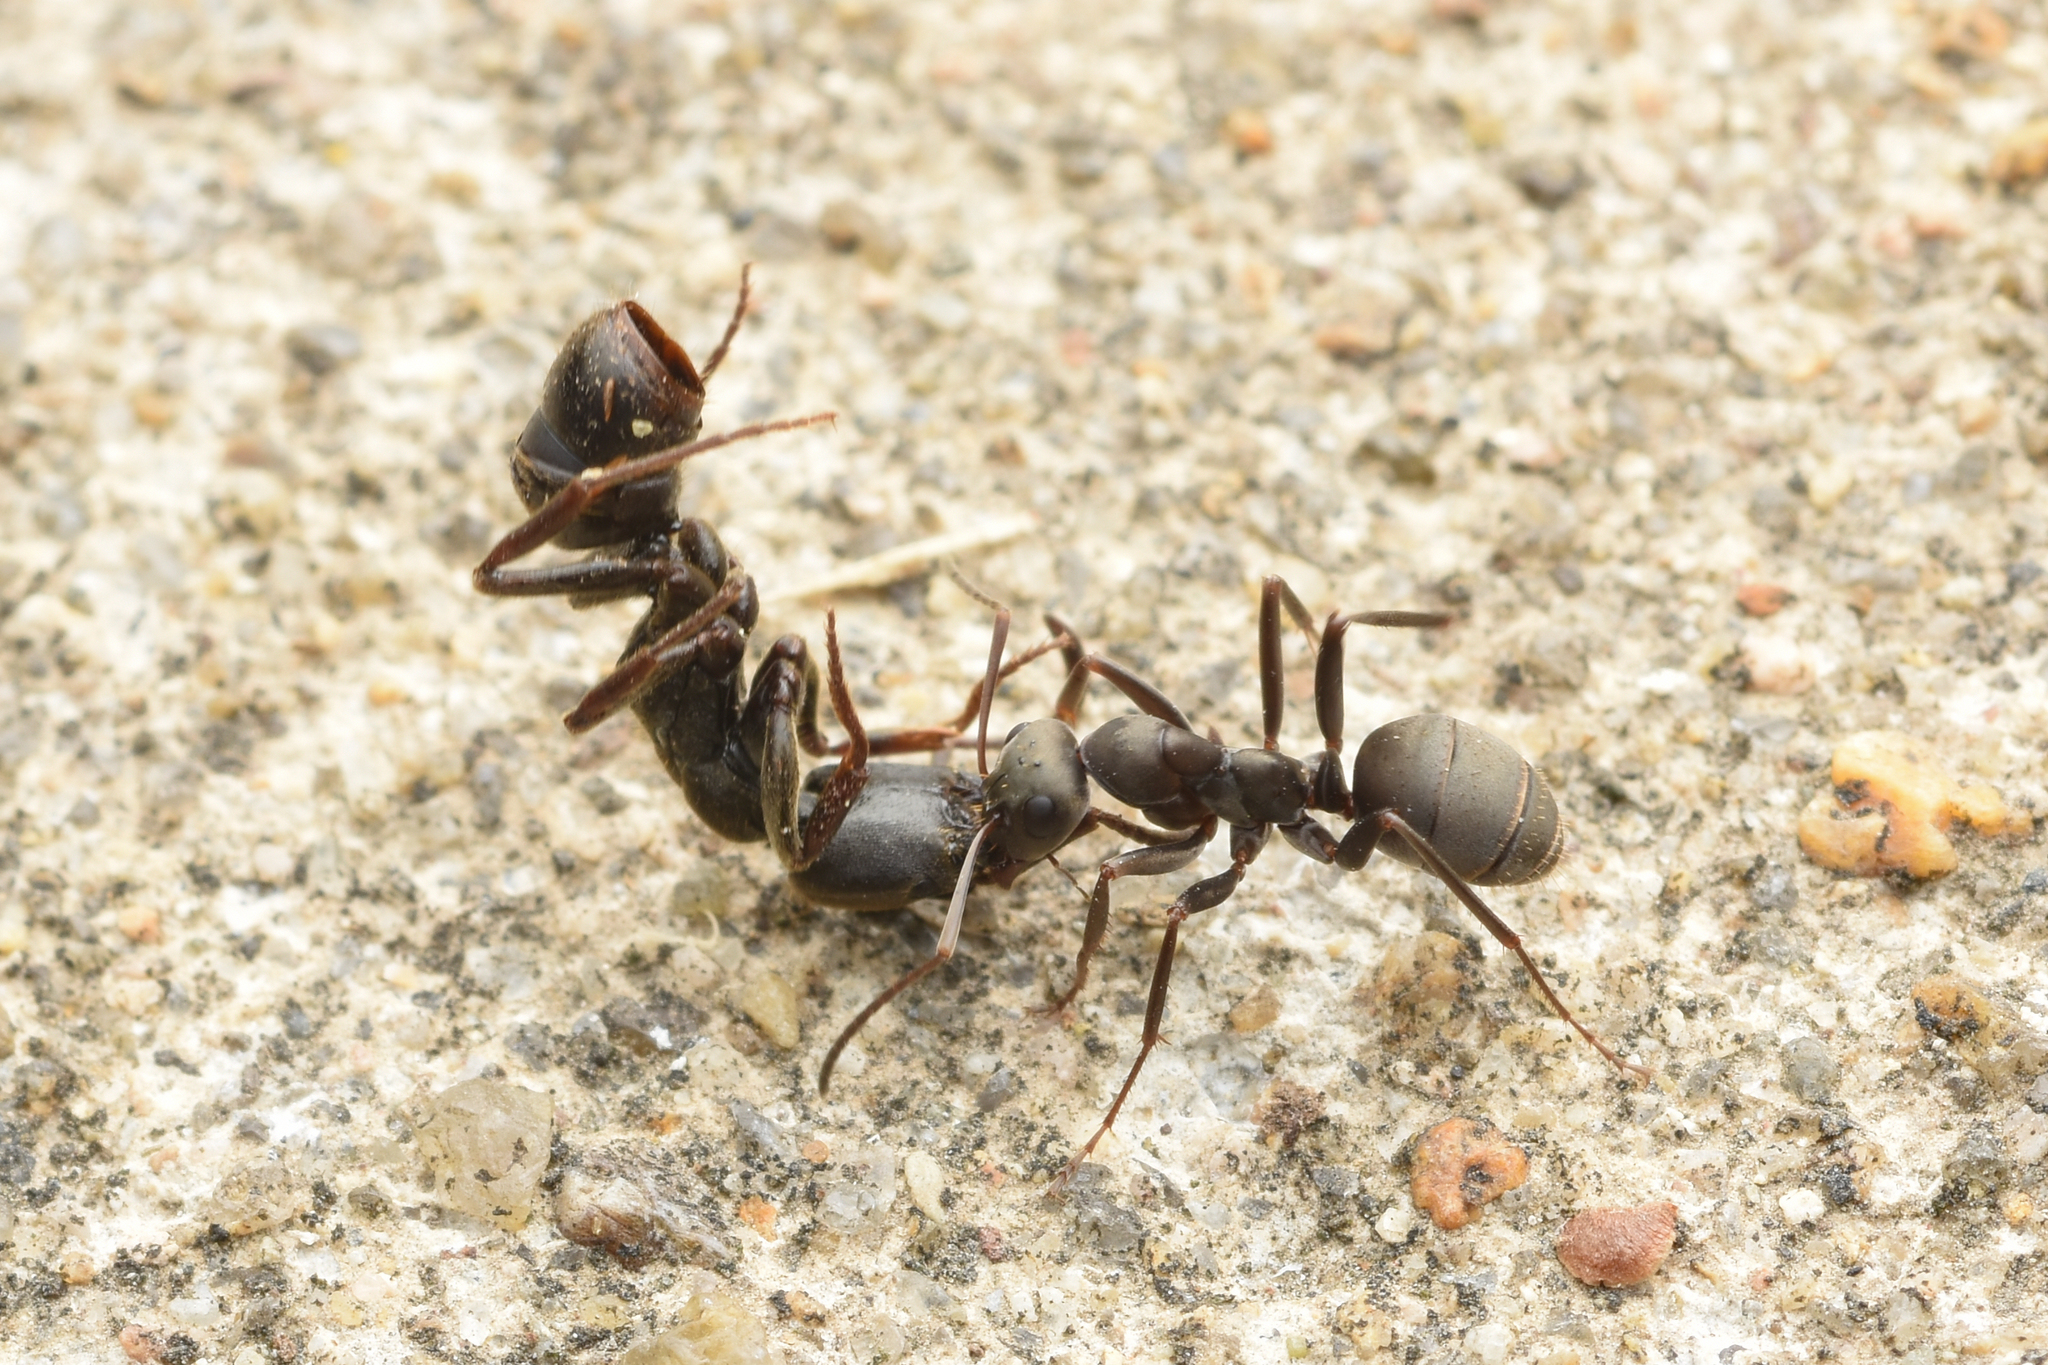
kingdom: Animalia
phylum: Arthropoda
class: Insecta
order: Hymenoptera
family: Formicidae
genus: Formica
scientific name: Formica japonica
